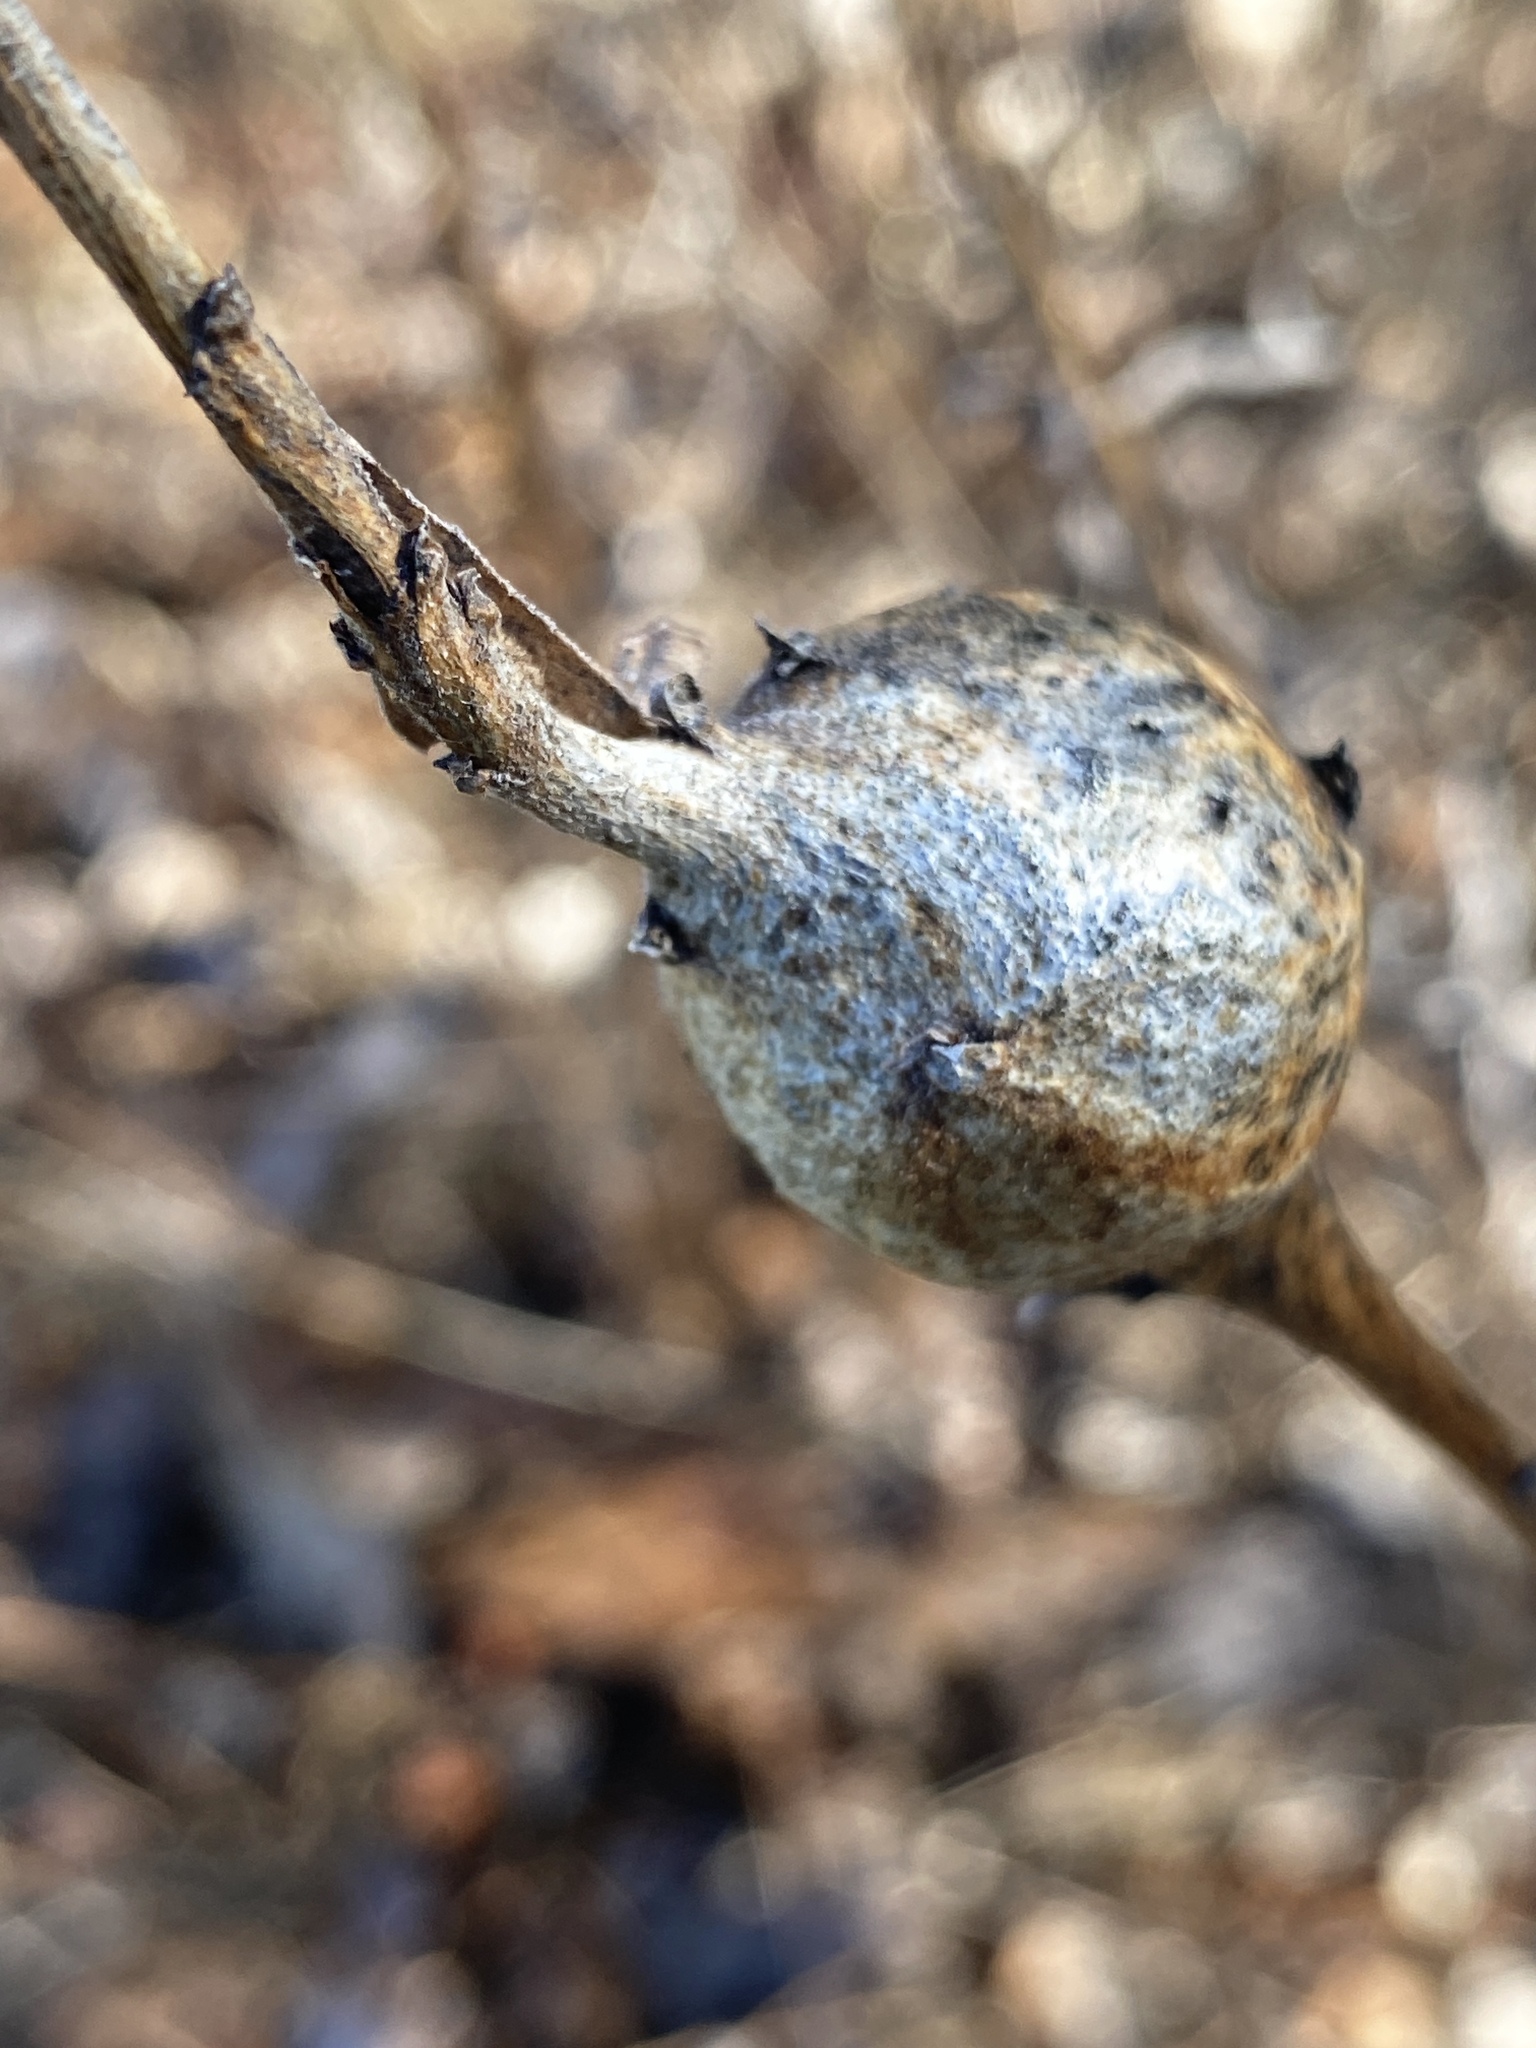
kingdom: Animalia
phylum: Arthropoda
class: Insecta
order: Diptera
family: Tephritidae
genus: Eurosta
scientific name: Eurosta solidaginis
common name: Goldenrod gall fly
